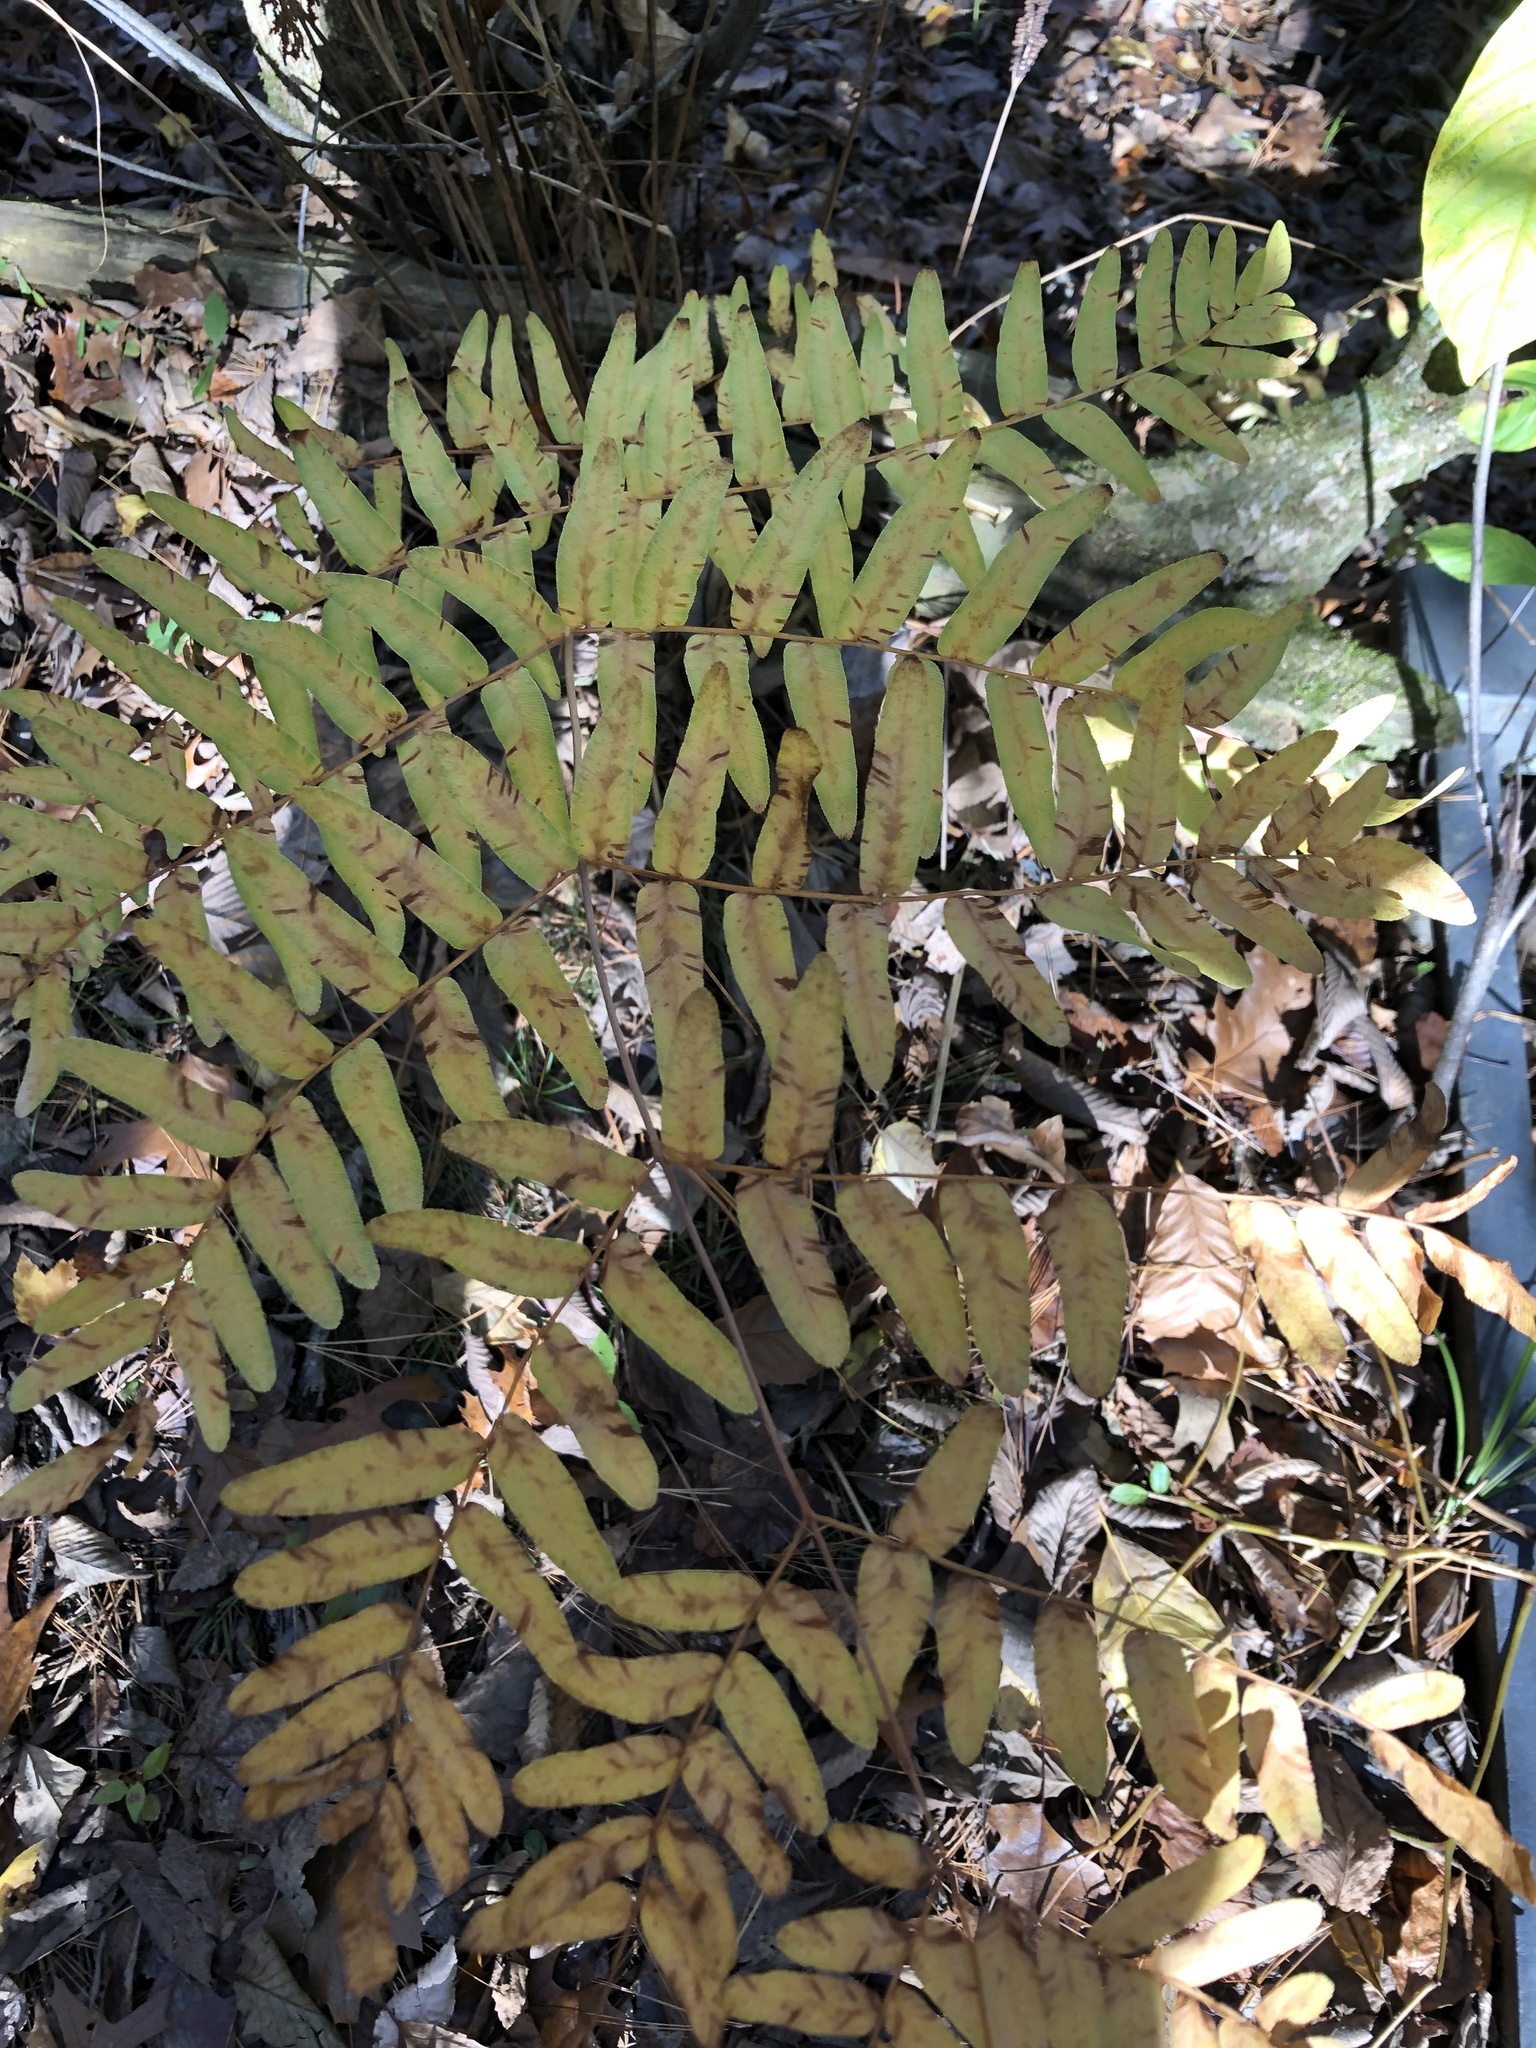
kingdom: Plantae
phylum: Tracheophyta
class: Polypodiopsida
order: Osmundales
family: Osmundaceae
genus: Osmunda
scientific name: Osmunda spectabilis
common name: American royal fern
